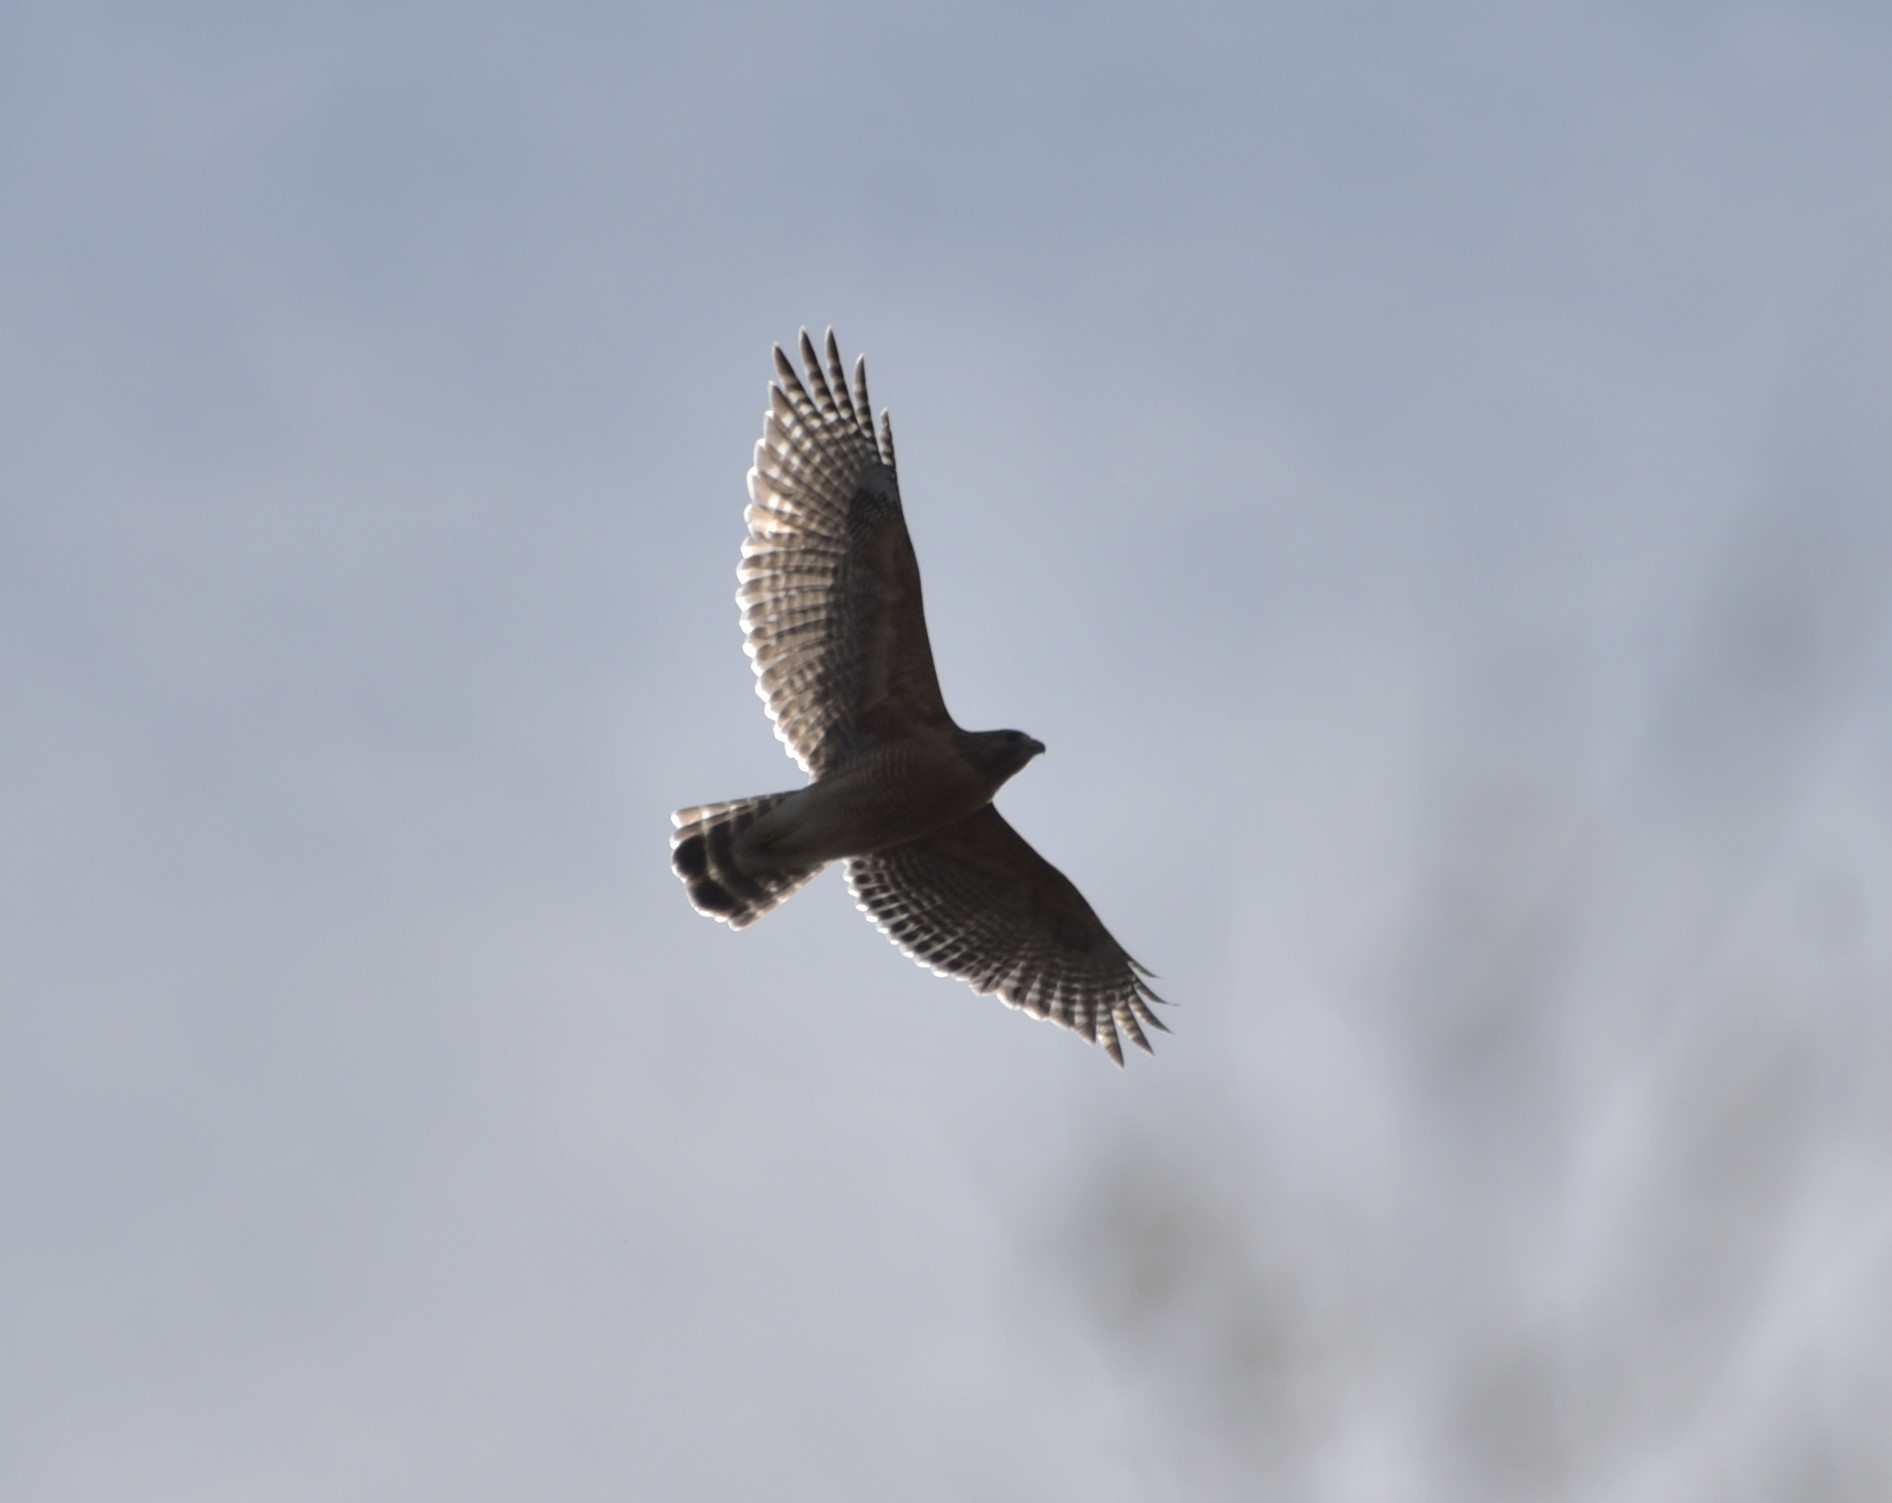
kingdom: Animalia
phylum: Chordata
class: Aves
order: Accipitriformes
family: Accipitridae
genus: Buteo
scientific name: Buteo lineatus
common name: Red-shouldered hawk
